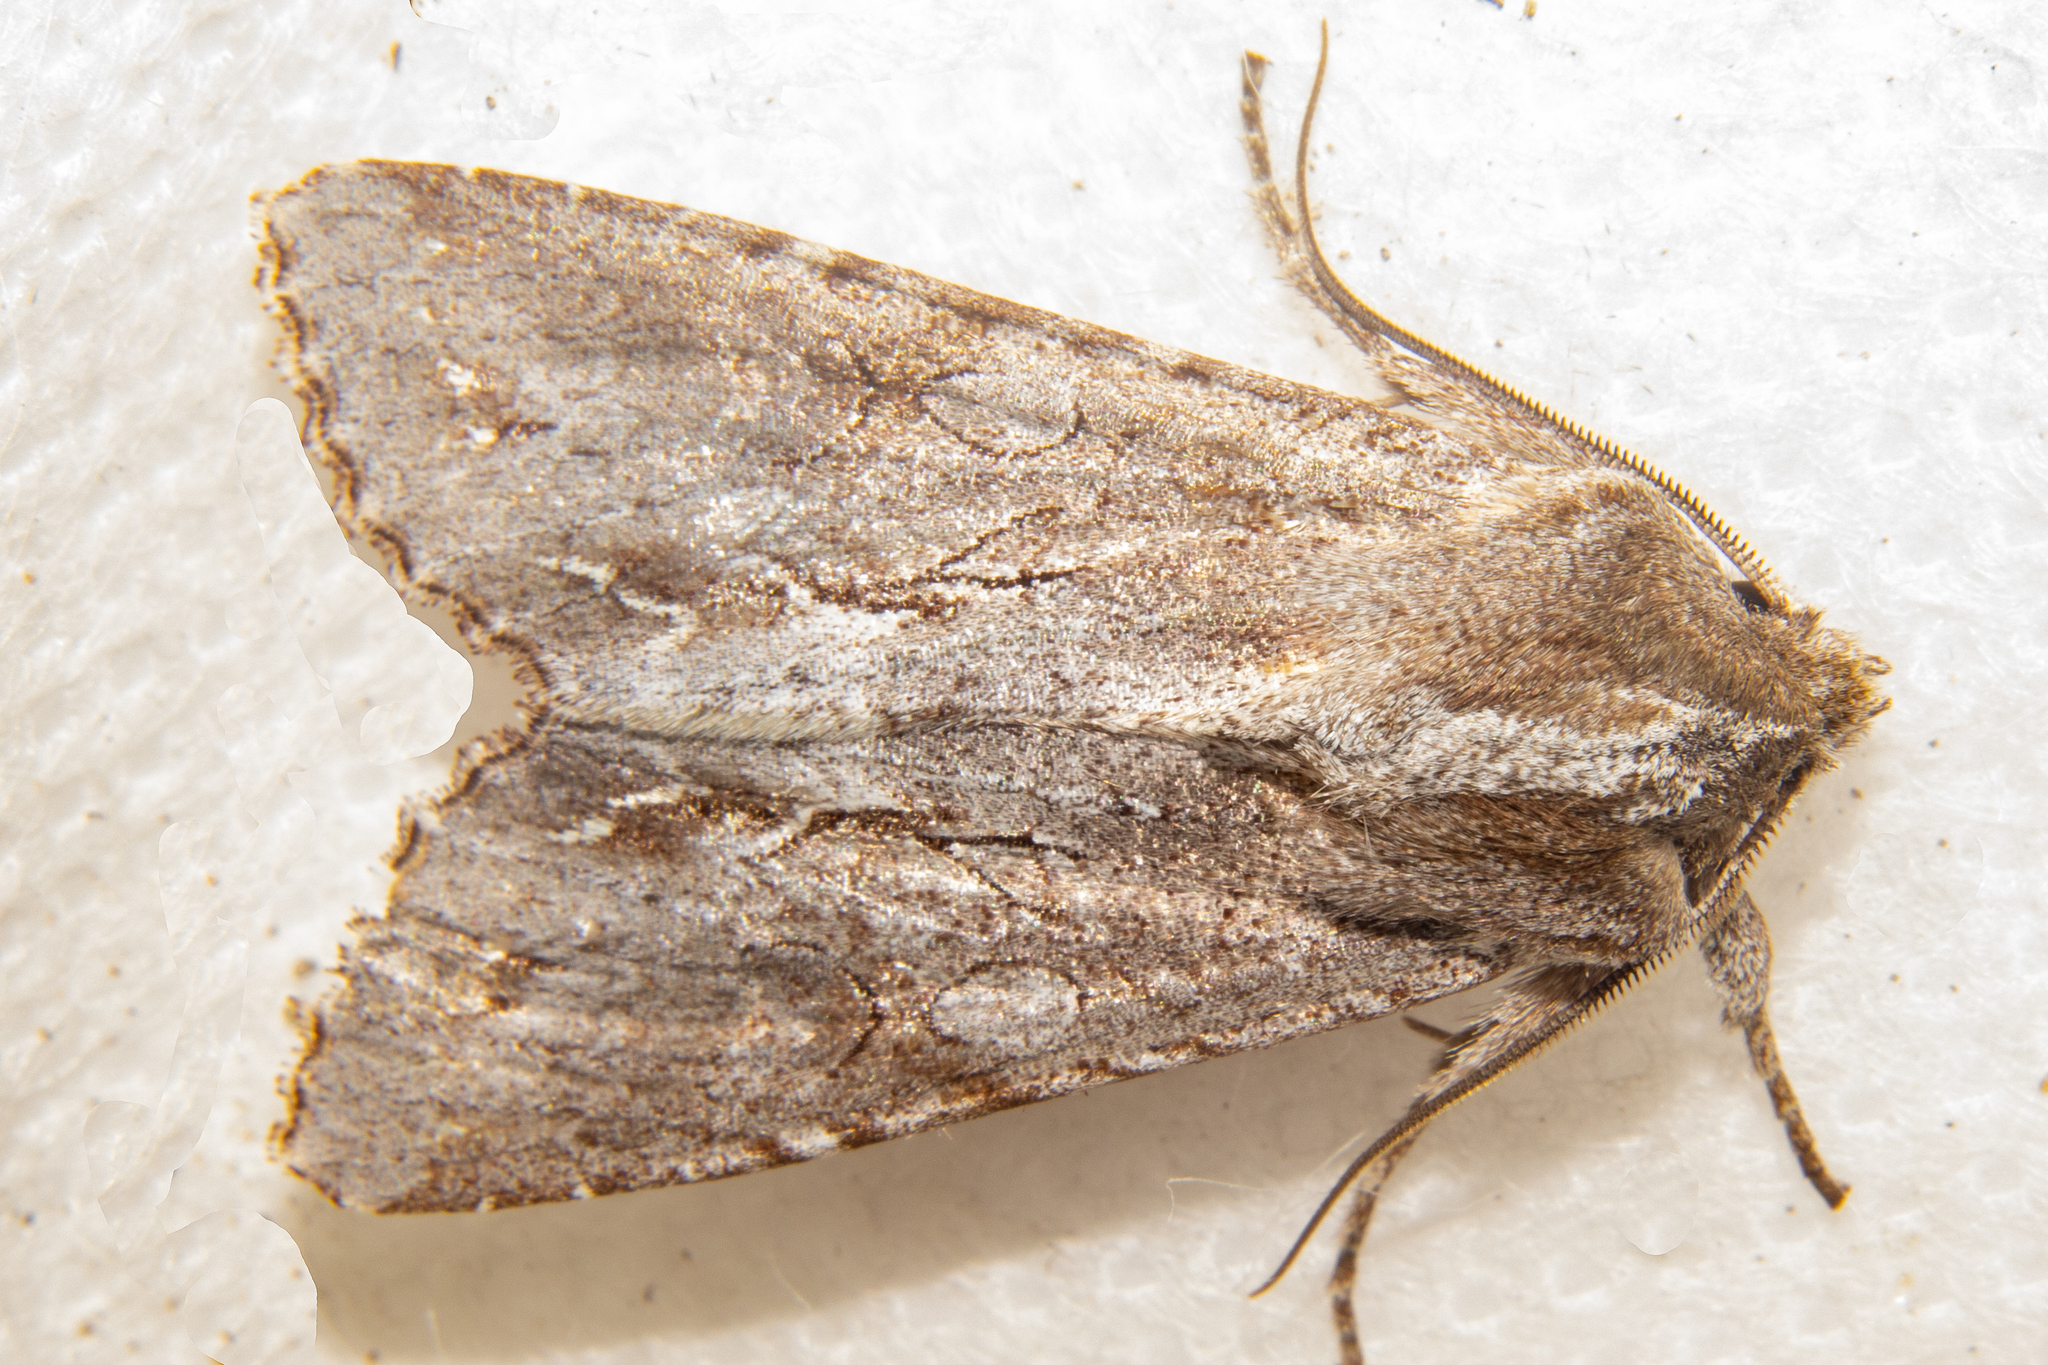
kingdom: Animalia
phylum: Arthropoda
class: Insecta
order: Lepidoptera
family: Noctuidae
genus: Ichneutica
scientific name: Ichneutica
